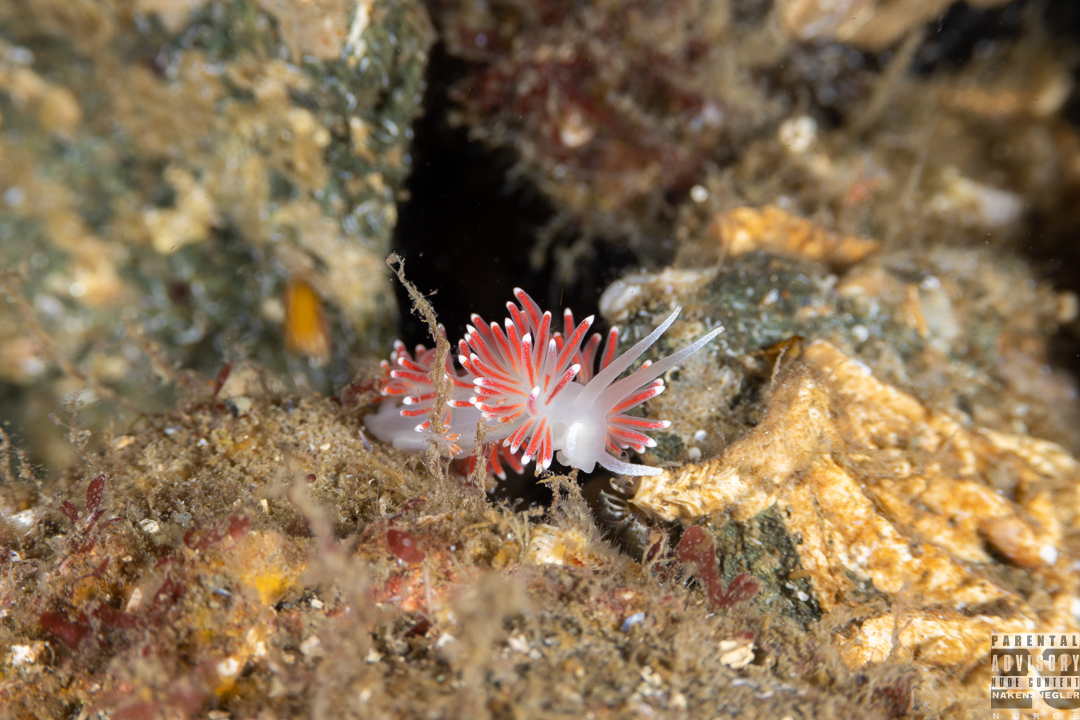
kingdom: Animalia
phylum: Mollusca
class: Gastropoda
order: Nudibranchia
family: Flabellinidae
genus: Carronella
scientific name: Carronella pellucida
